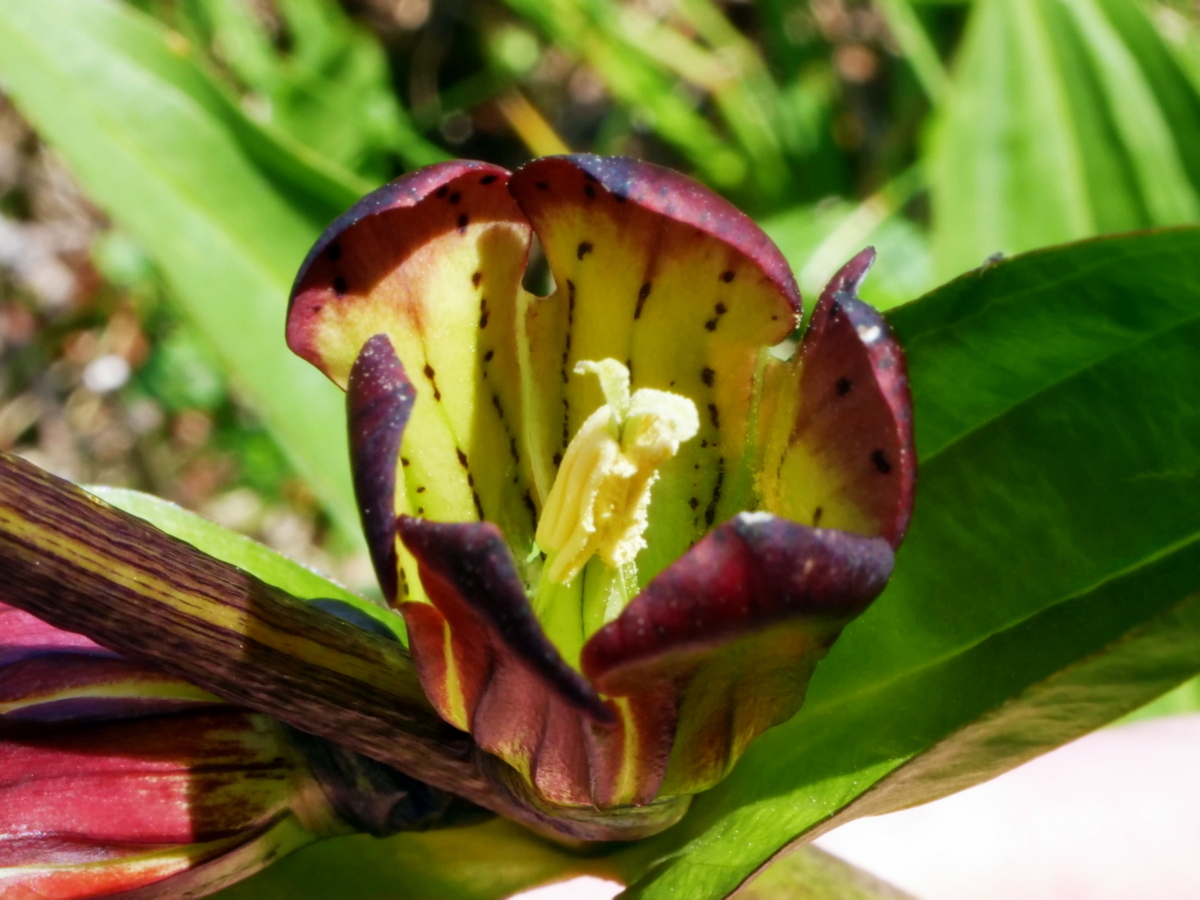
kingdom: Plantae
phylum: Tracheophyta
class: Magnoliopsida
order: Gentianales
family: Gentianaceae
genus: Gentiana
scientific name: Gentiana purpurea
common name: Purple gentian
